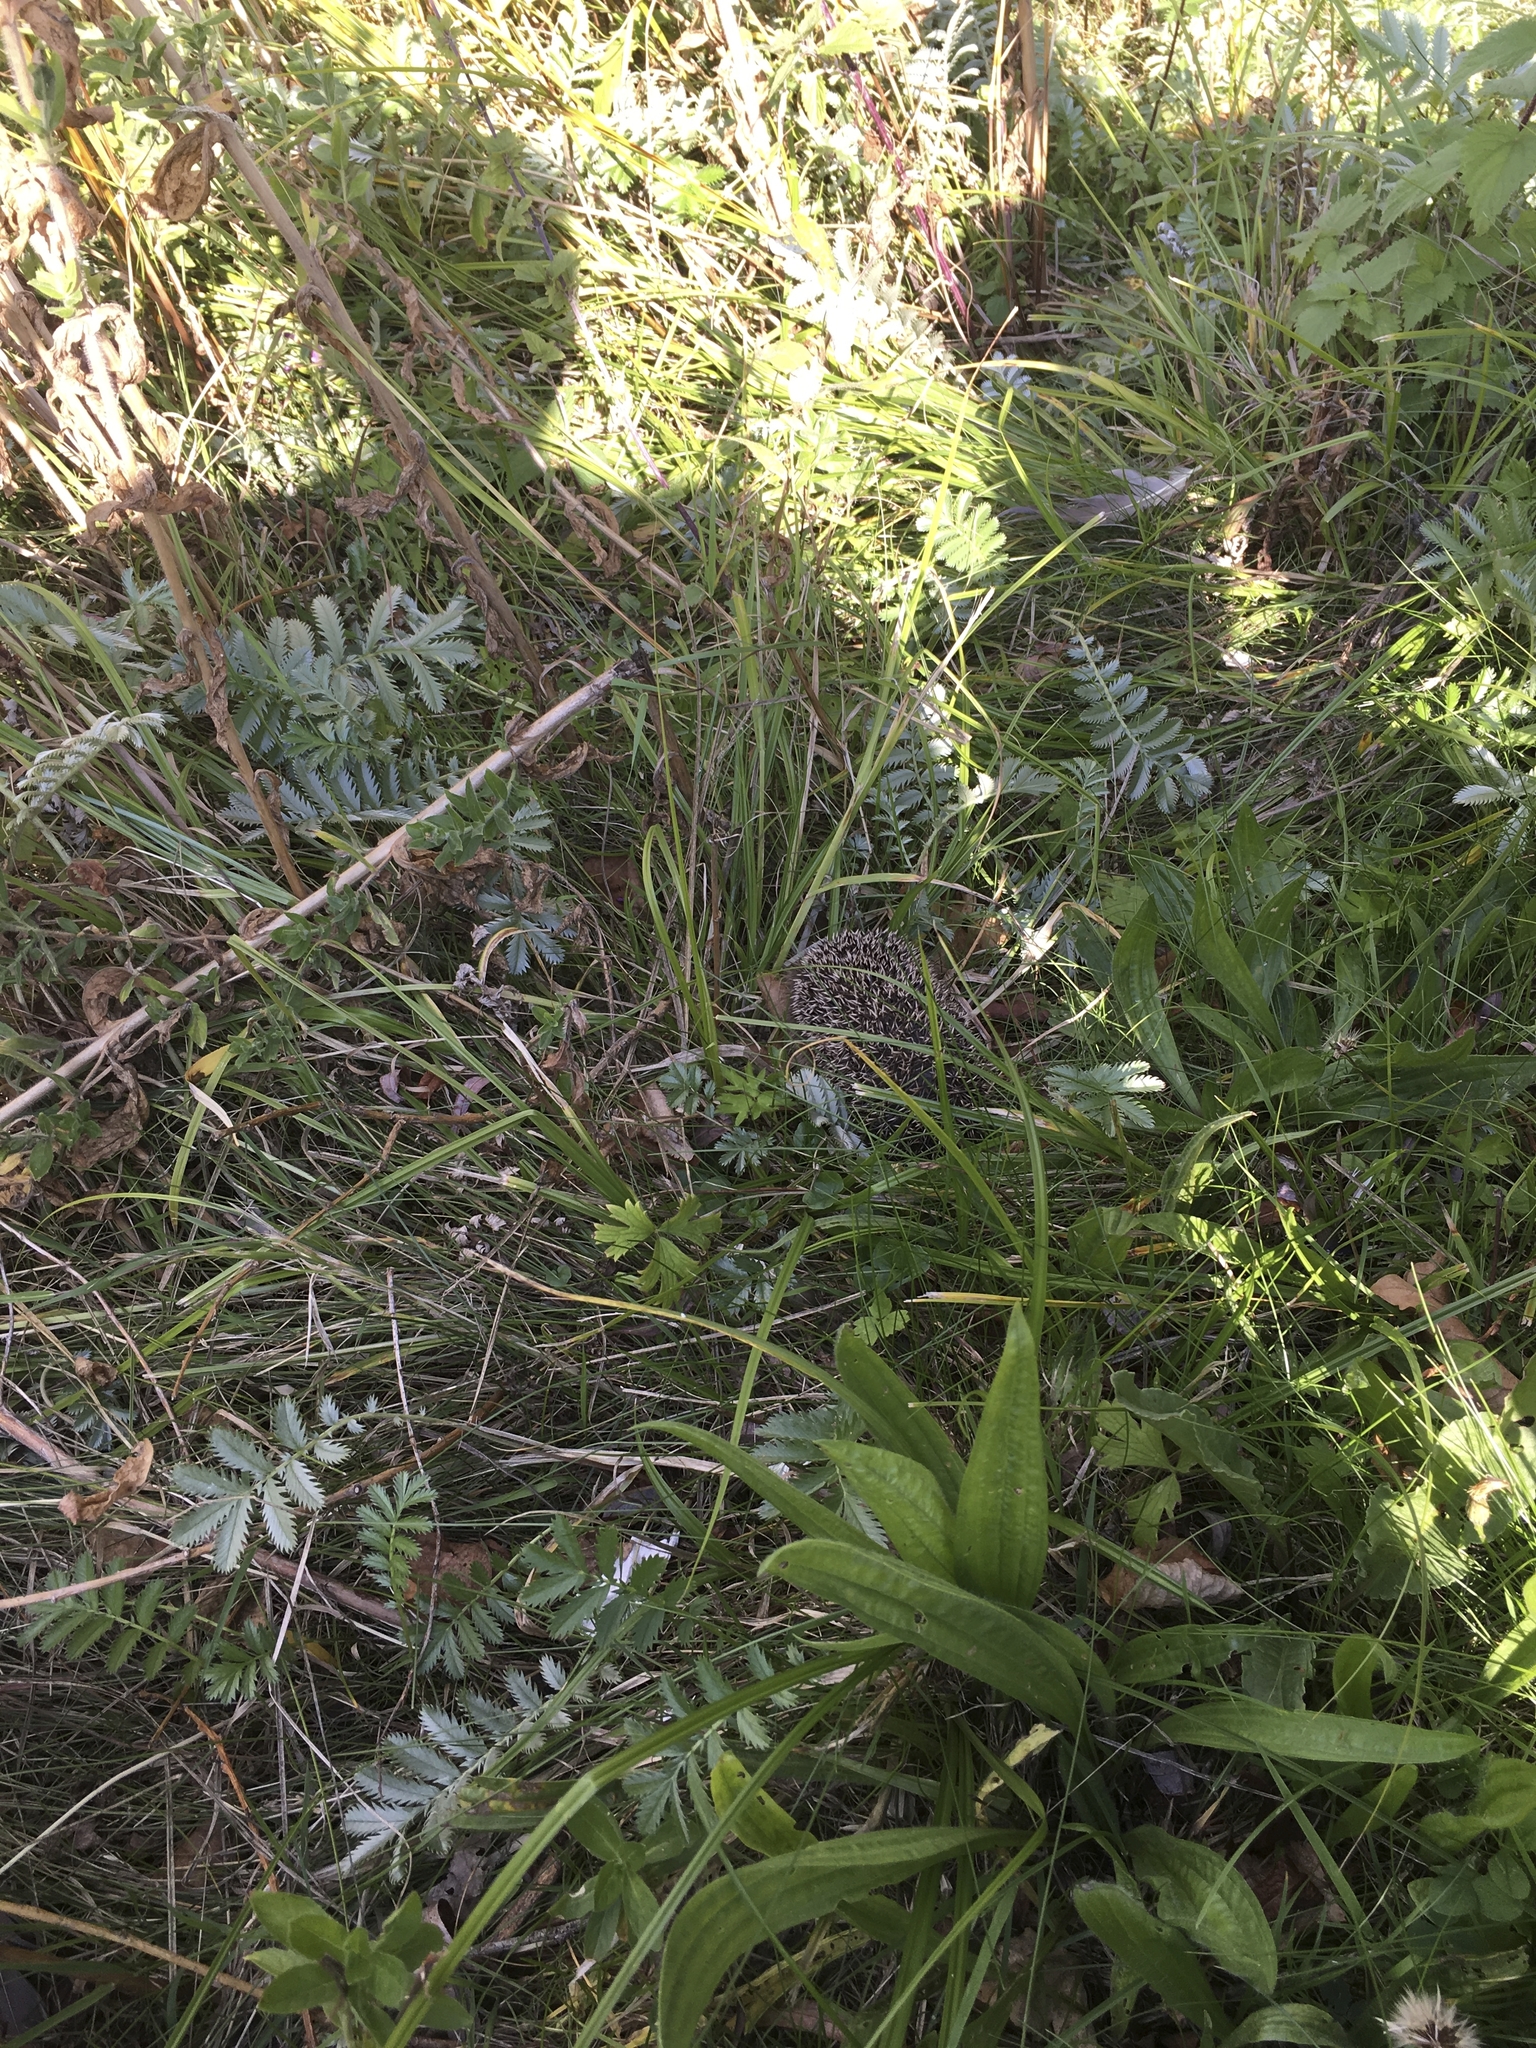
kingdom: Animalia
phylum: Chordata
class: Mammalia
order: Erinaceomorpha
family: Erinaceidae
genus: Erinaceus
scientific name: Erinaceus europaeus
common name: West european hedgehog
